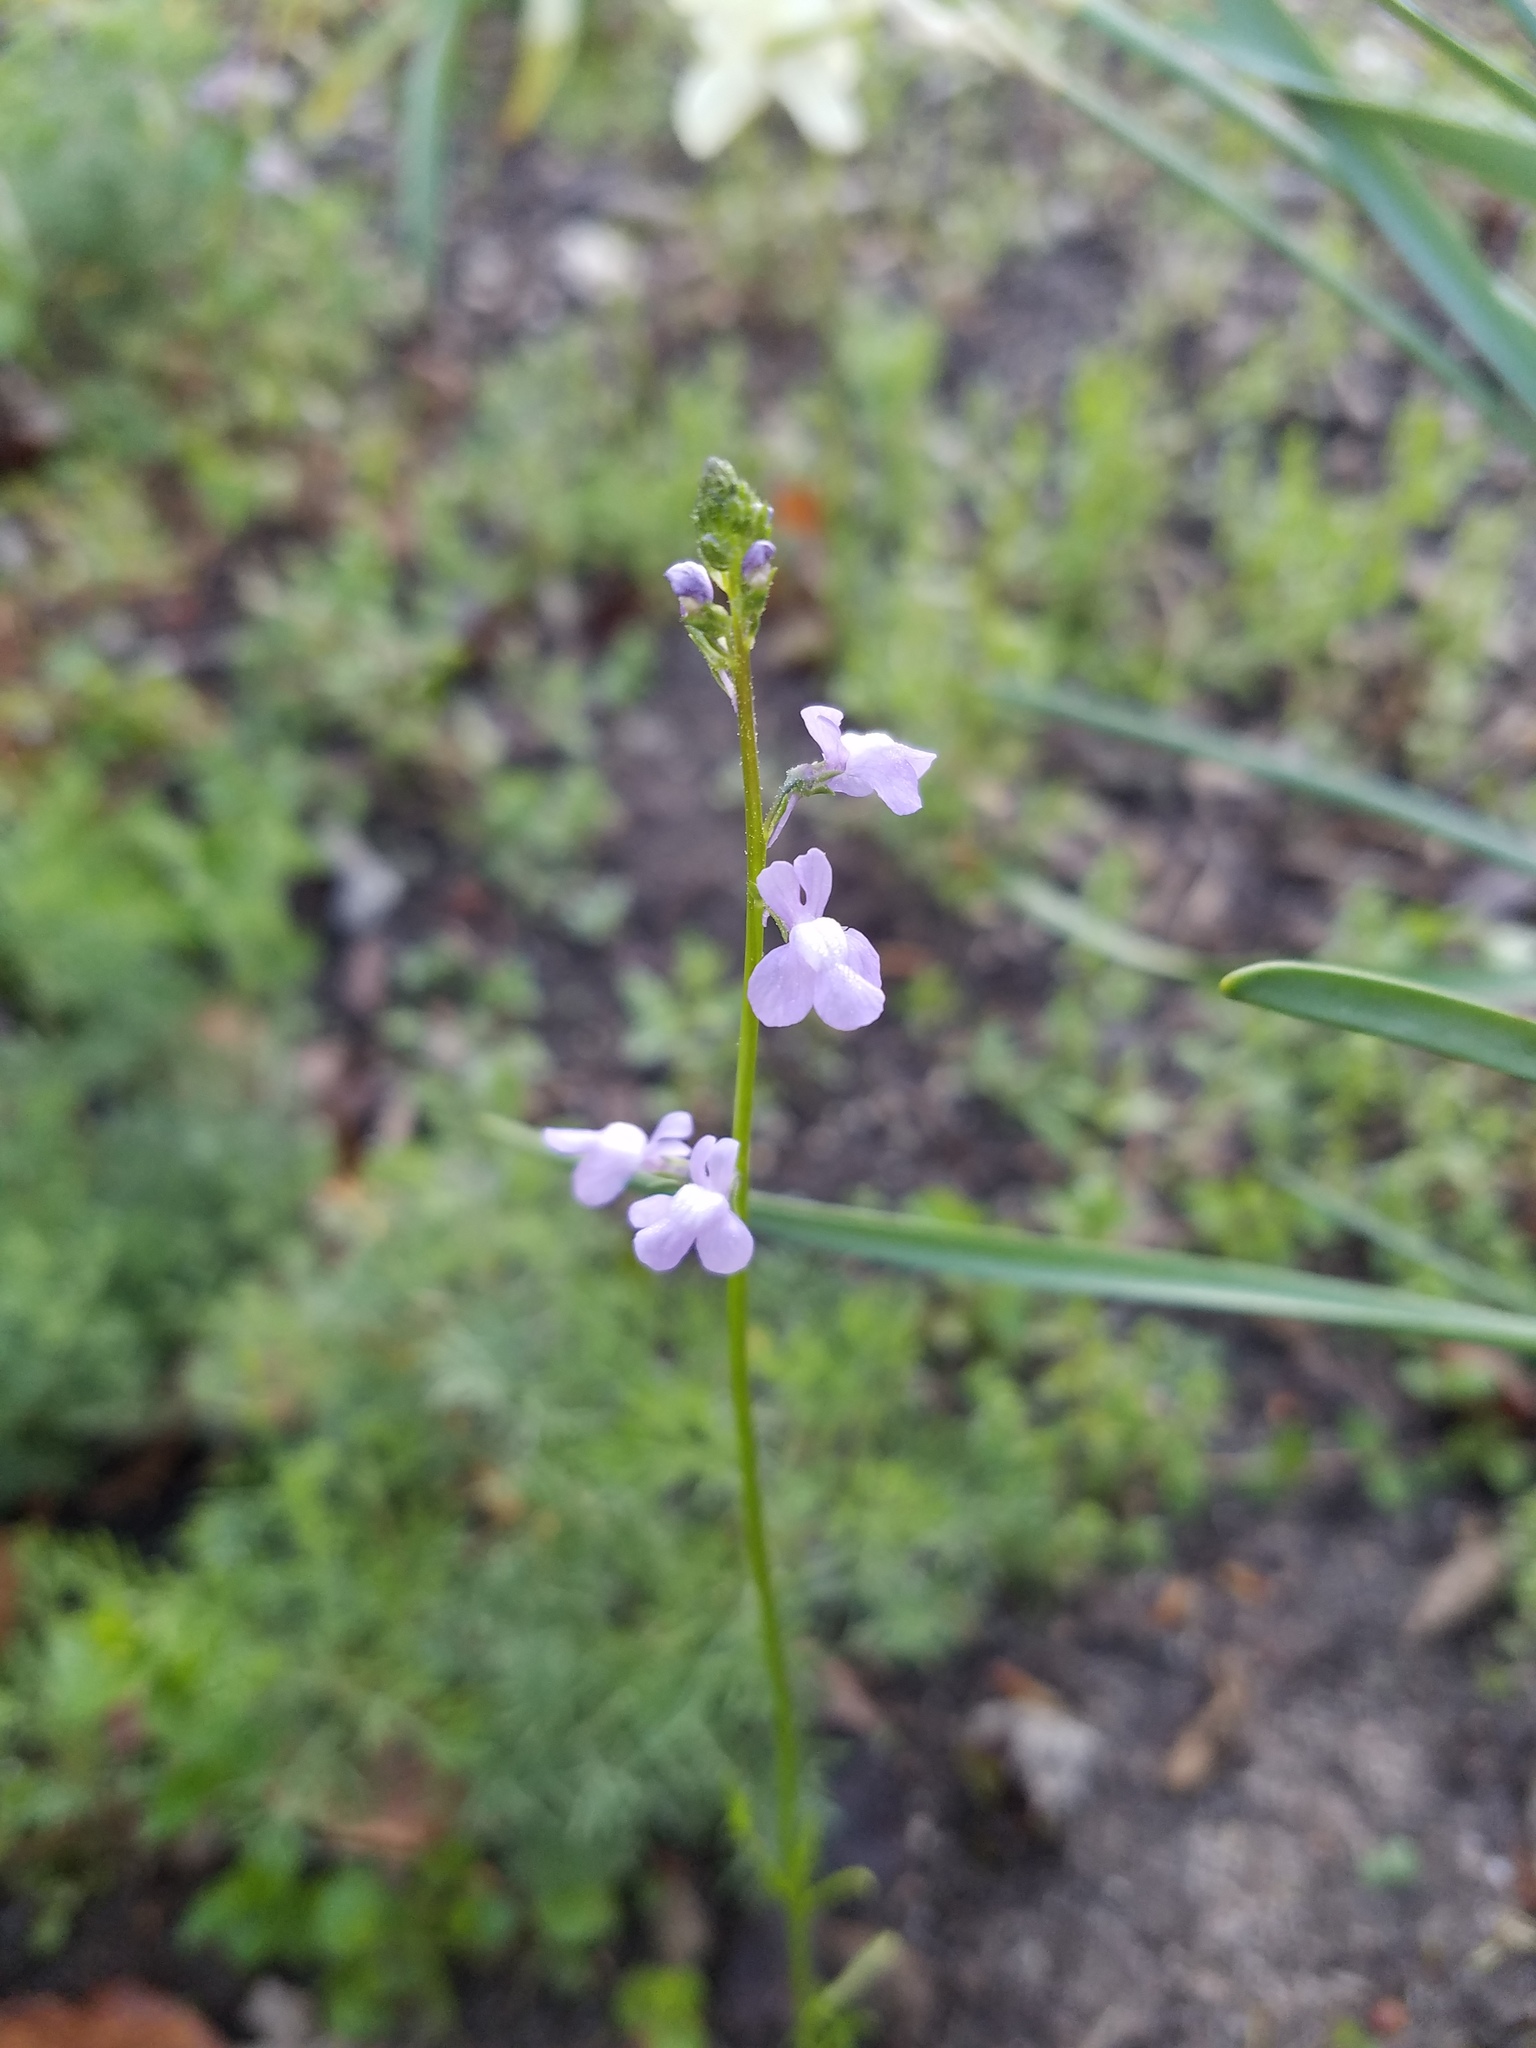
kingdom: Plantae
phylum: Tracheophyta
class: Magnoliopsida
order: Lamiales
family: Plantaginaceae
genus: Nuttallanthus
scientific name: Nuttallanthus canadensis
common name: Blue toadflax
